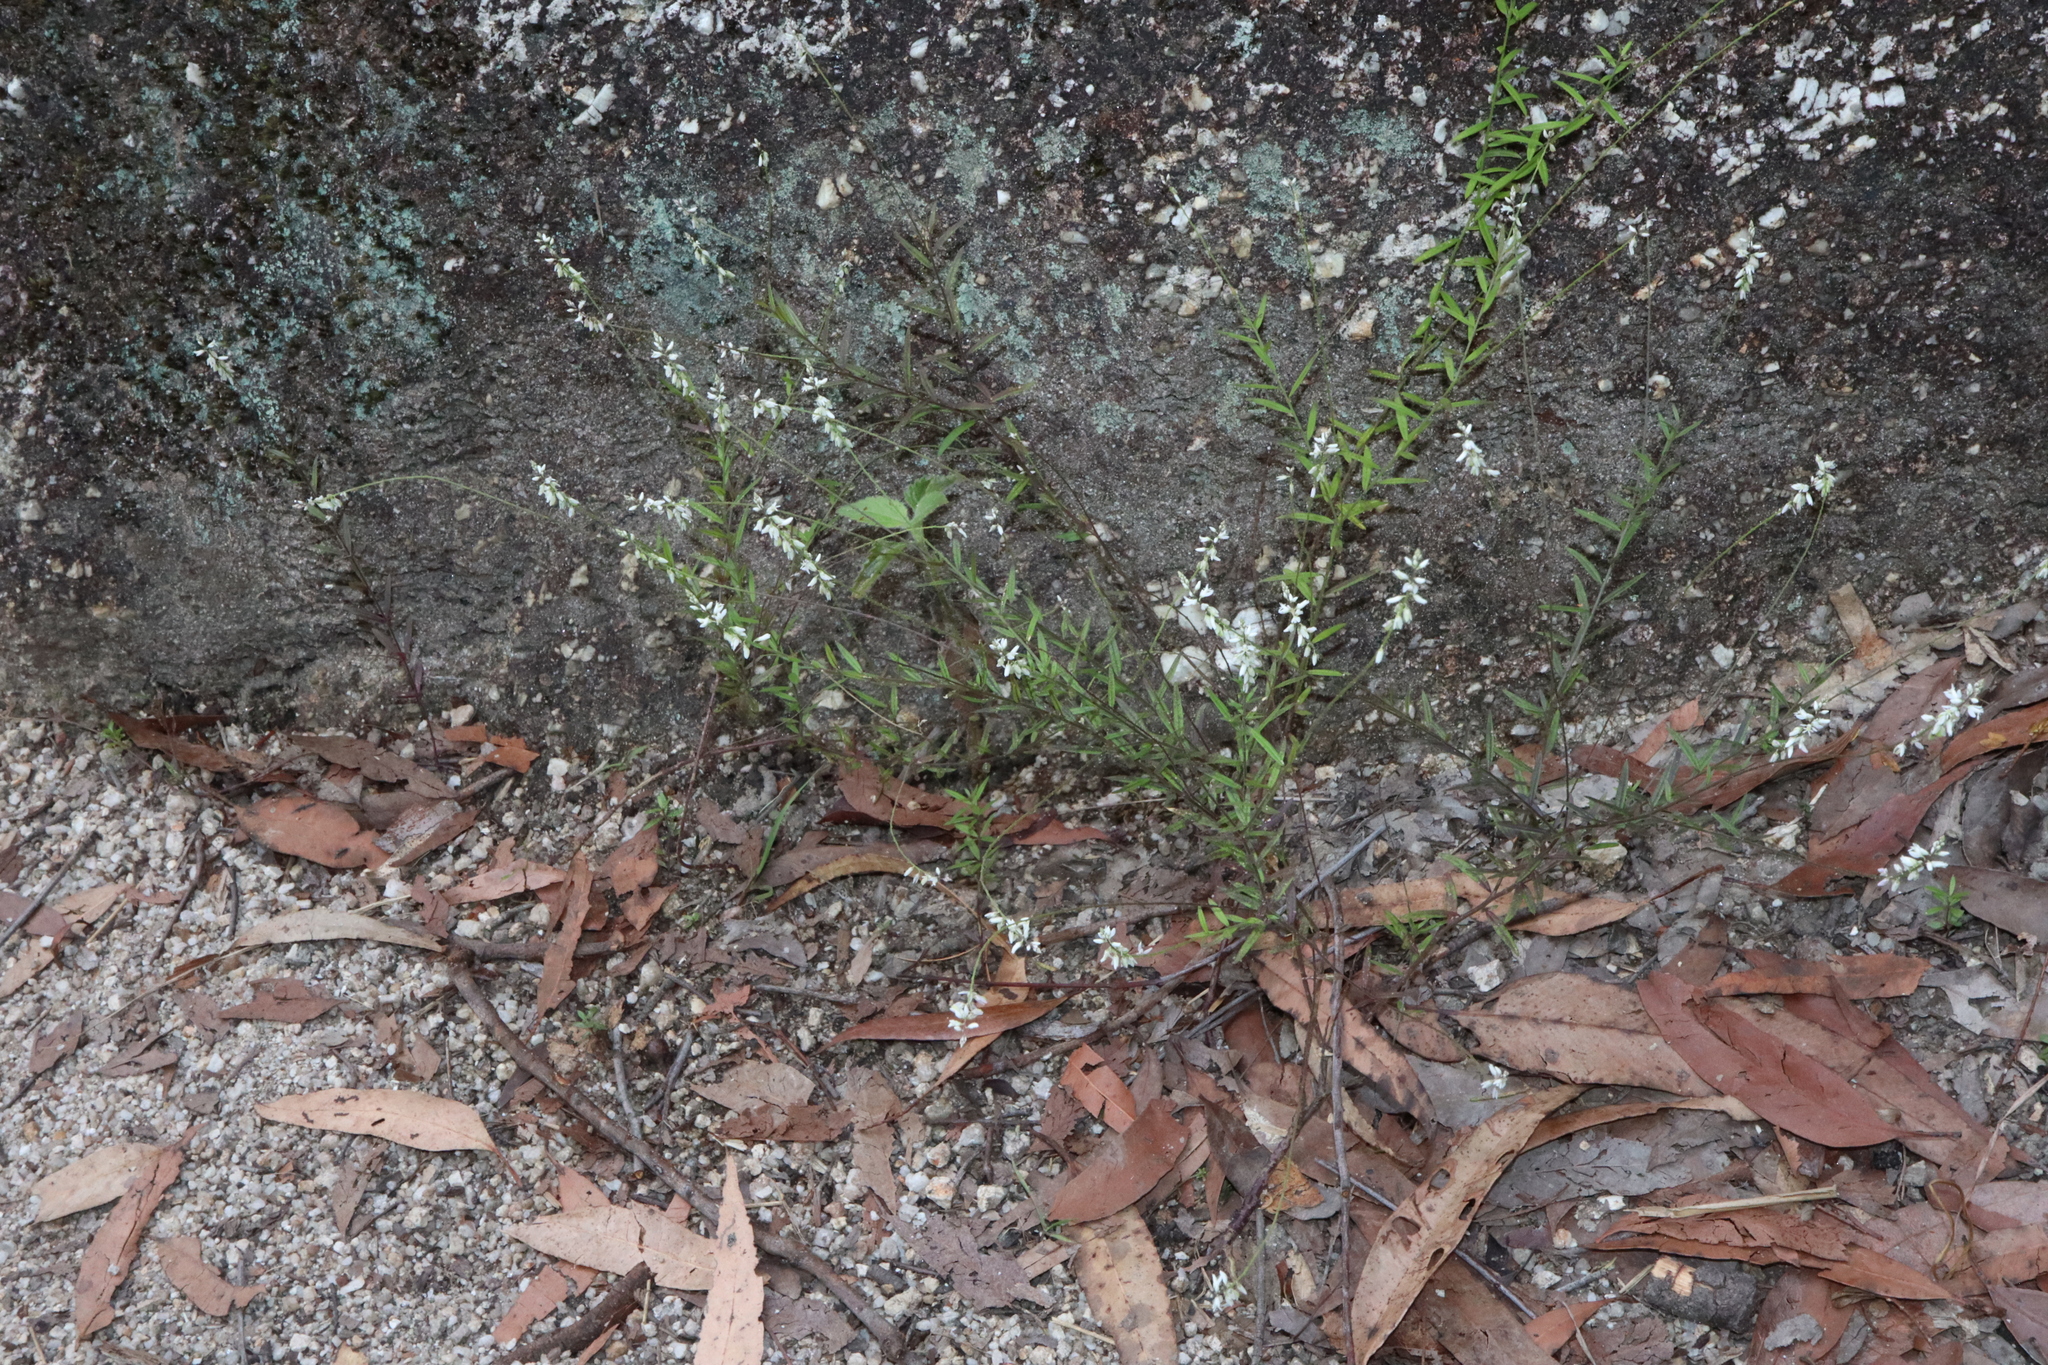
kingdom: Plantae
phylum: Tracheophyta
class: Magnoliopsida
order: Fabales
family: Polygalaceae
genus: Polygala
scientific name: Polygala paniculata
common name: Orosne
